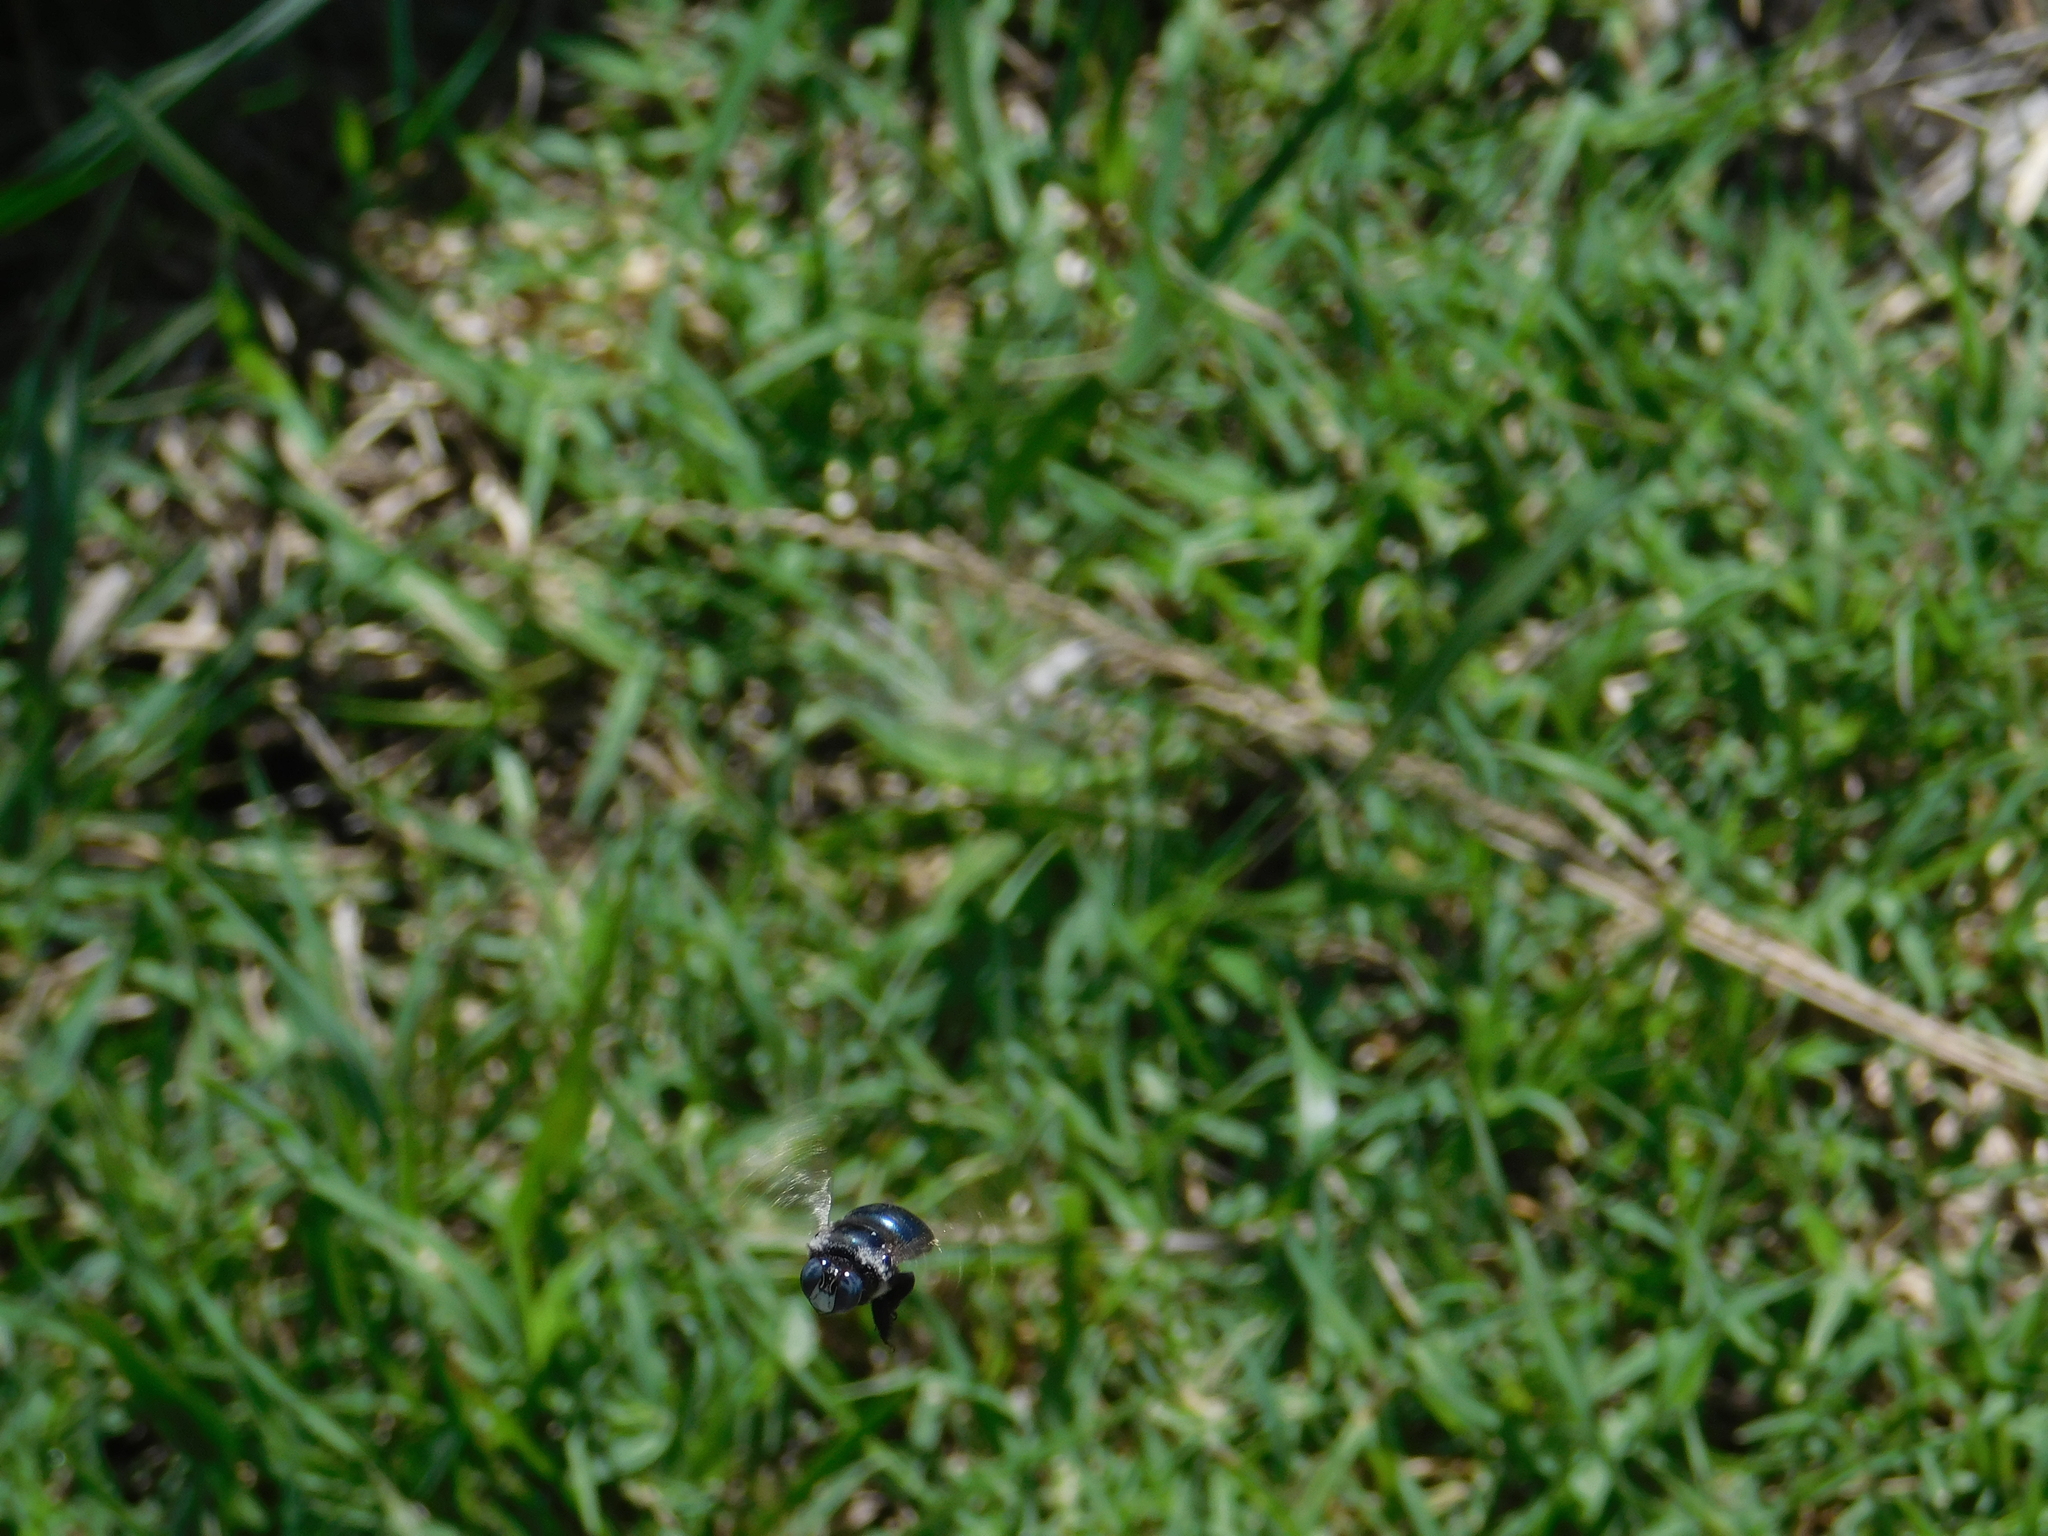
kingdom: Animalia
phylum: Arthropoda
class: Insecta
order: Hymenoptera
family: Apidae
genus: Xylocopa
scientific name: Xylocopa splendidula
